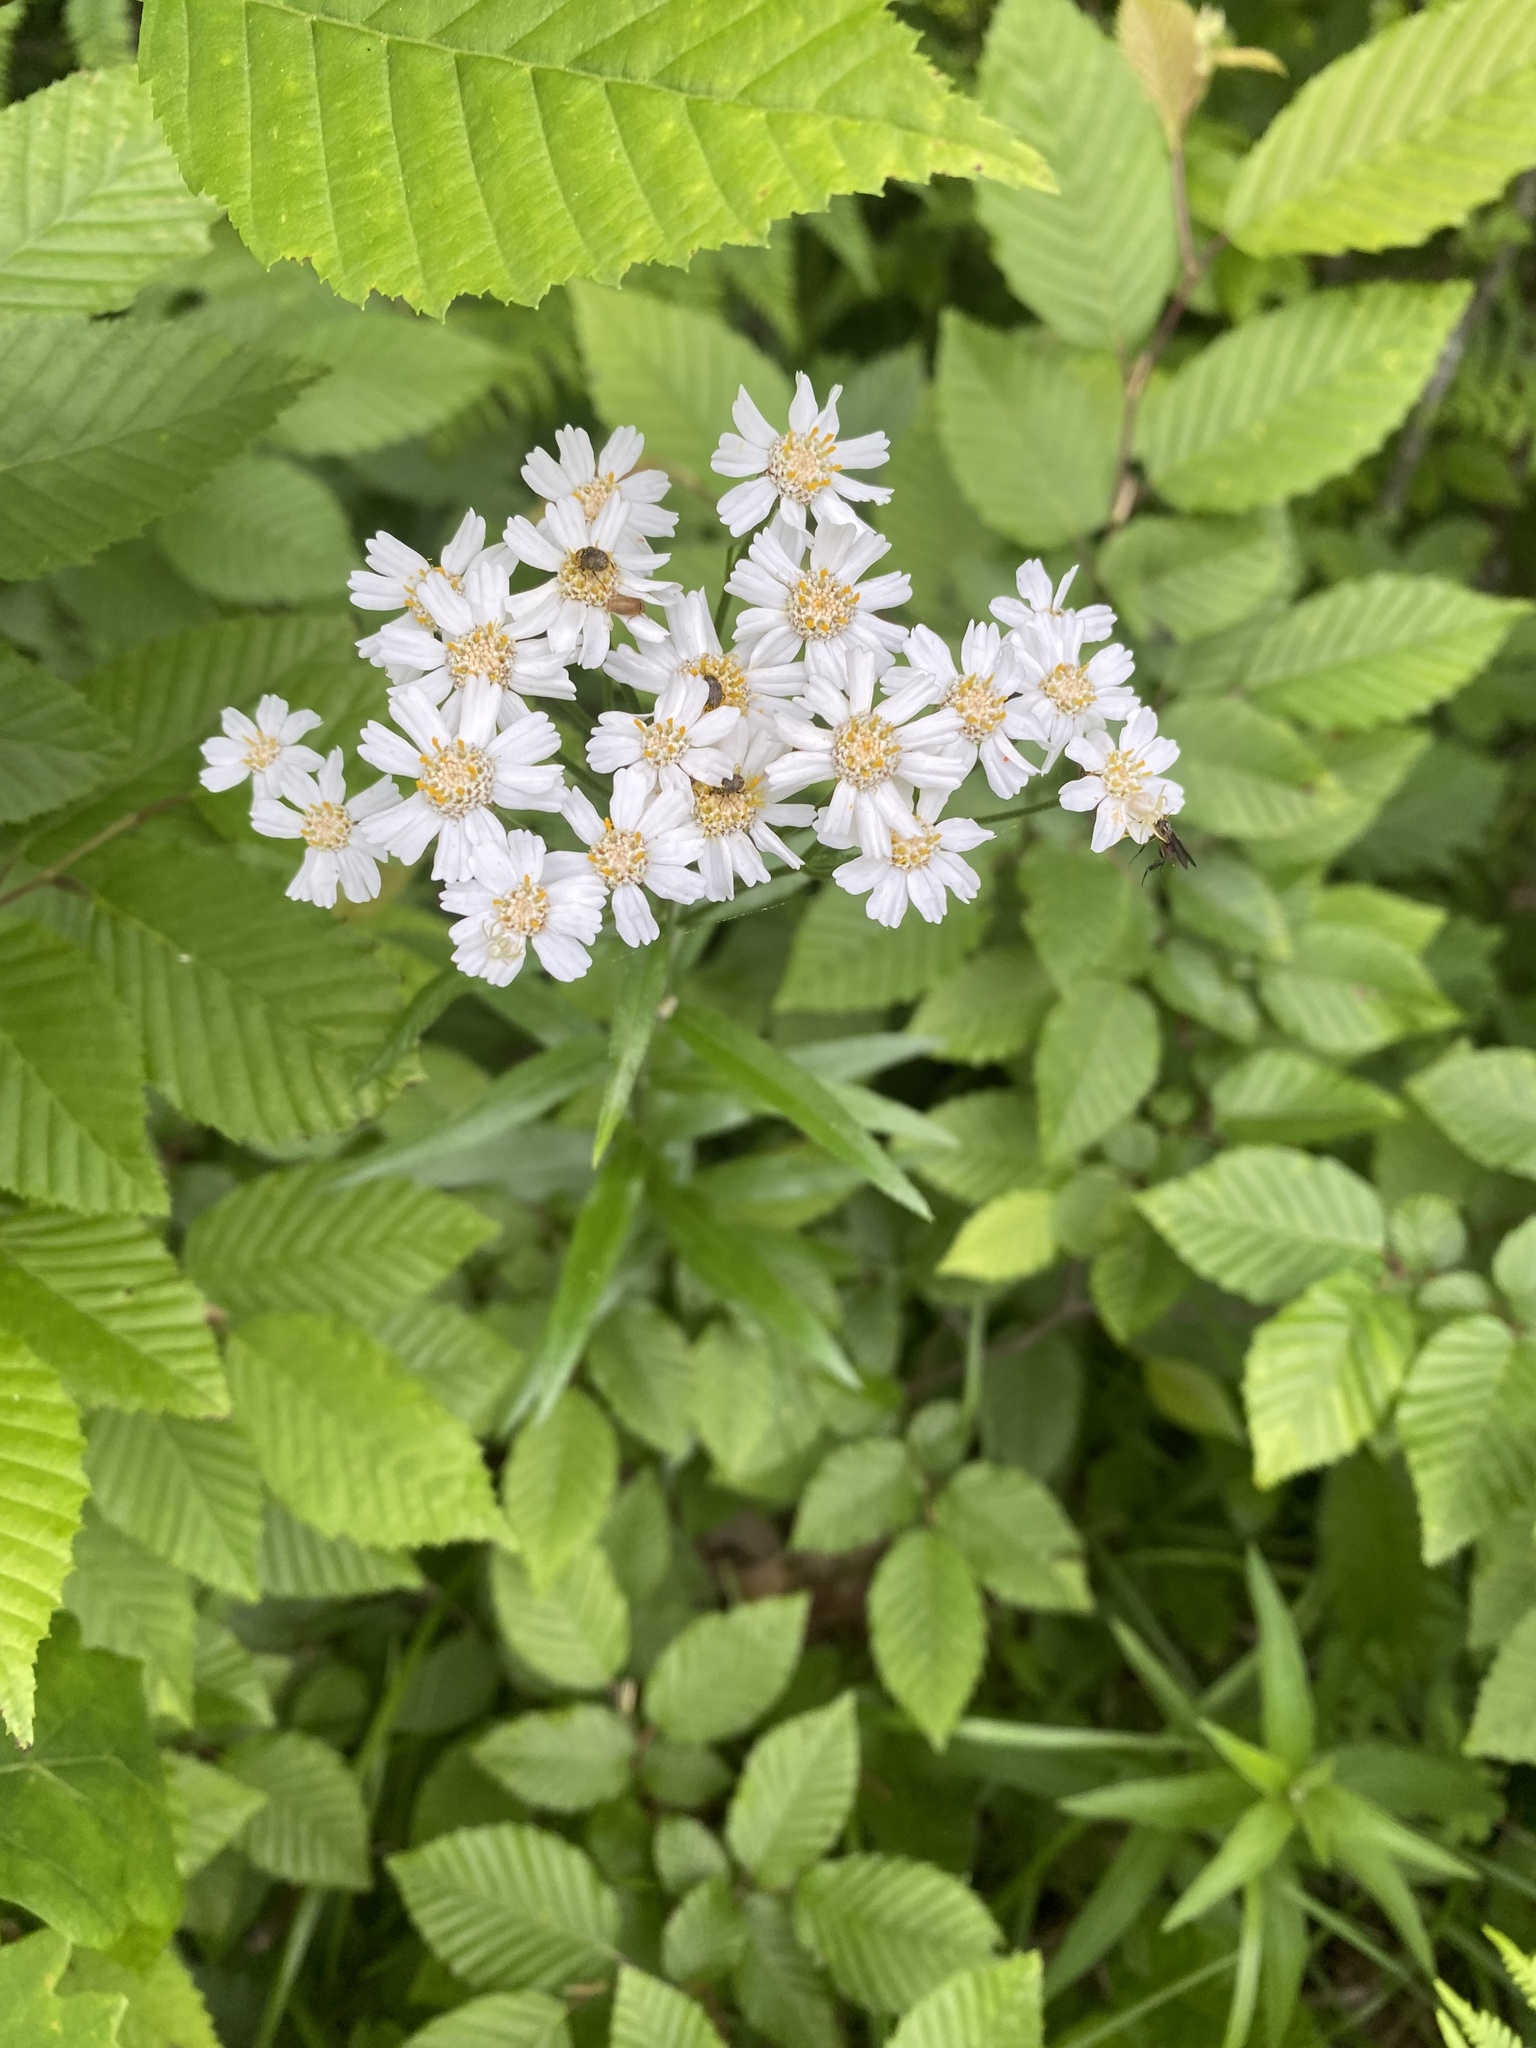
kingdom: Plantae
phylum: Tracheophyta
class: Magnoliopsida
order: Asterales
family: Asteraceae
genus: Achillea
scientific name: Achillea biserrata
